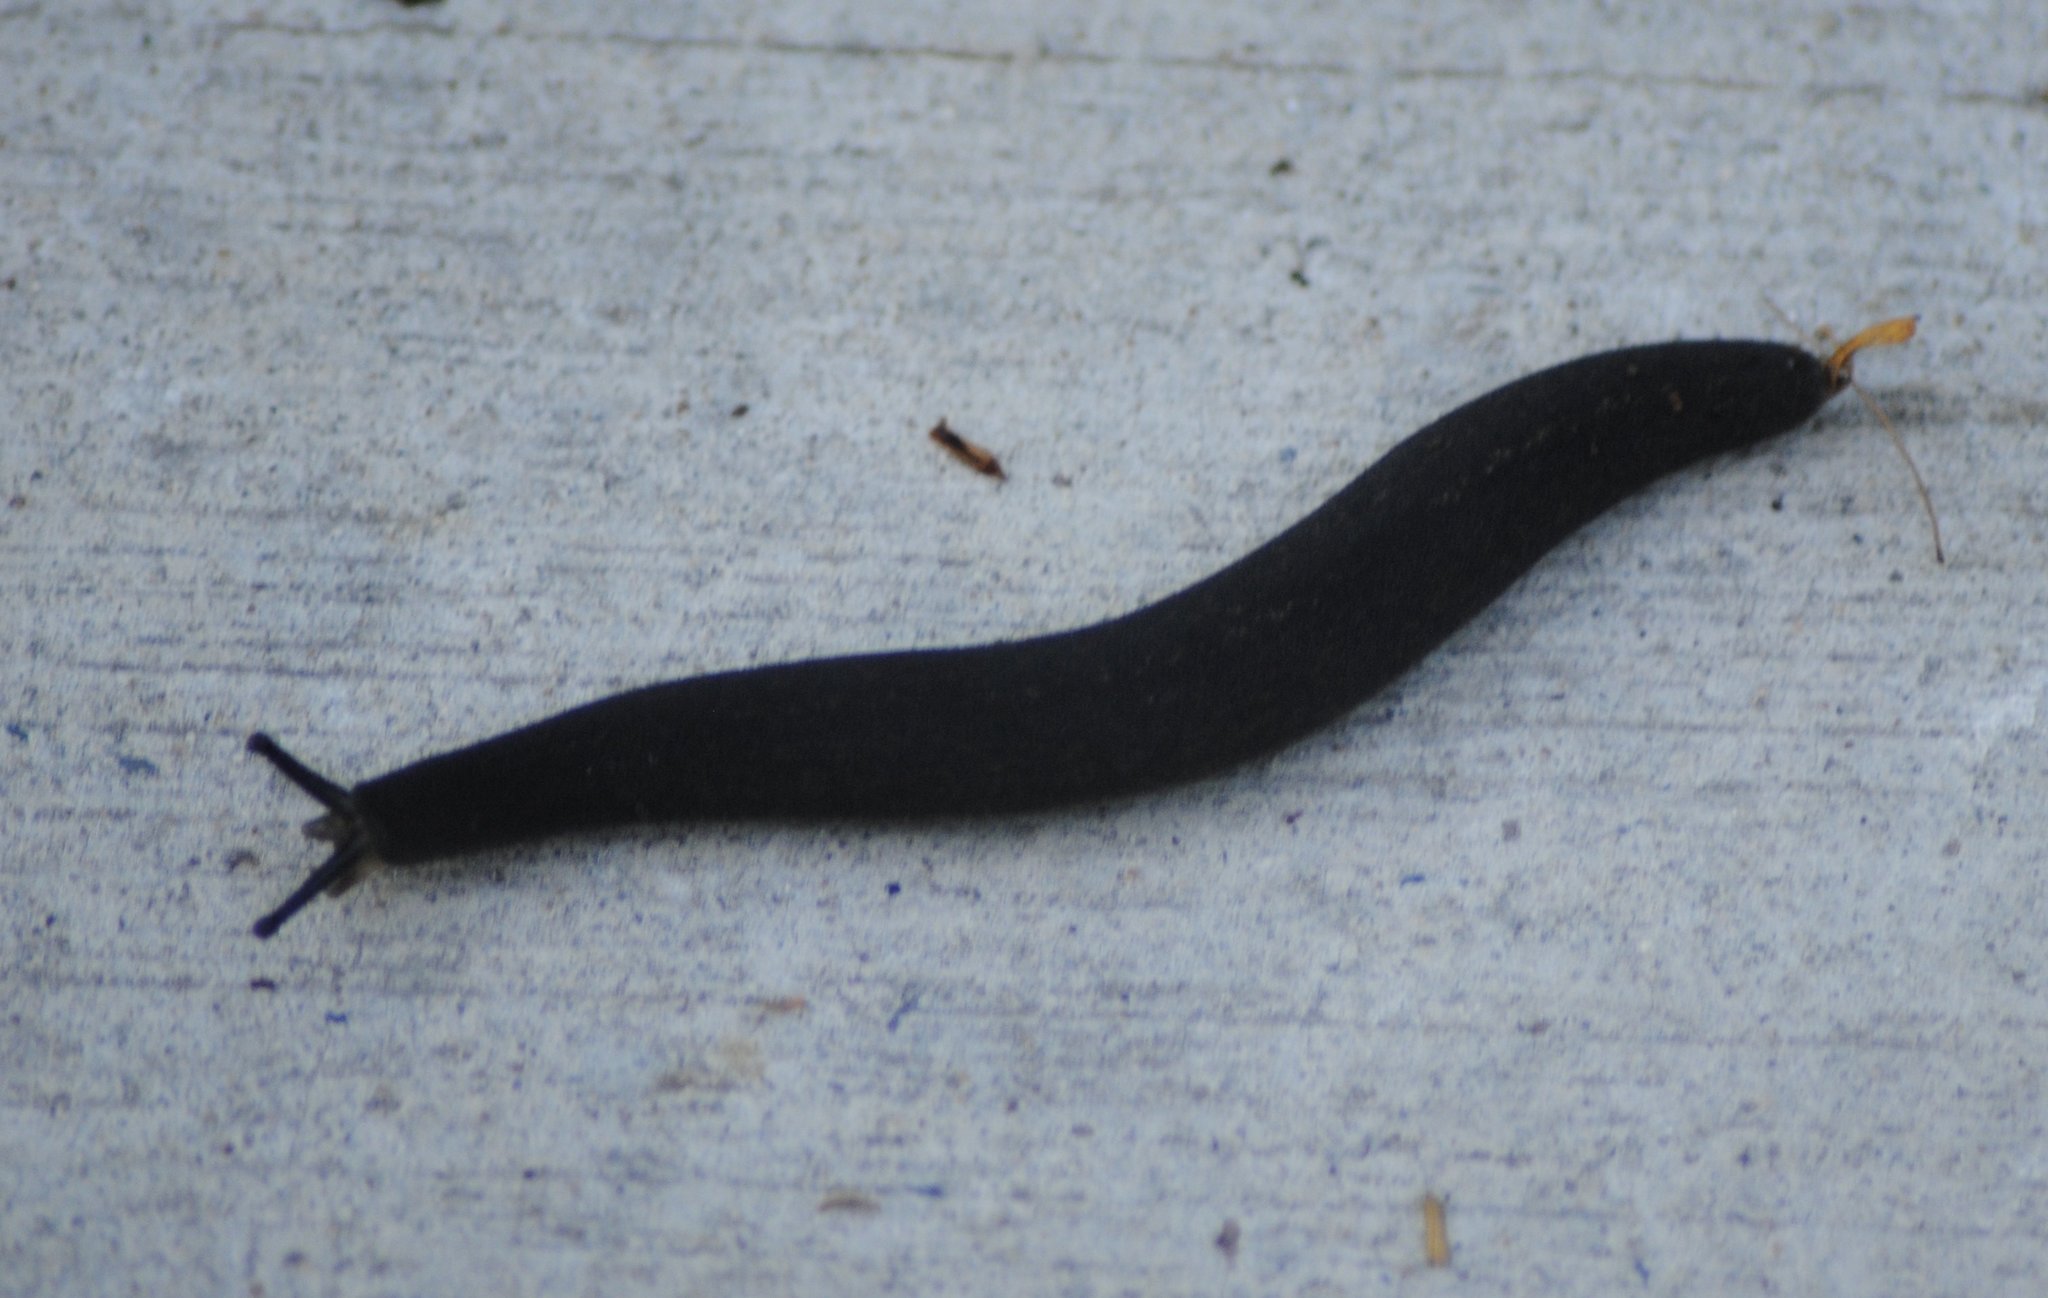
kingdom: Animalia
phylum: Mollusca
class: Gastropoda
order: Systellommatophora
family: Veronicellidae
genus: Belocaulus
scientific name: Belocaulus angustipes
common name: Black velvet leatherleaf slug
